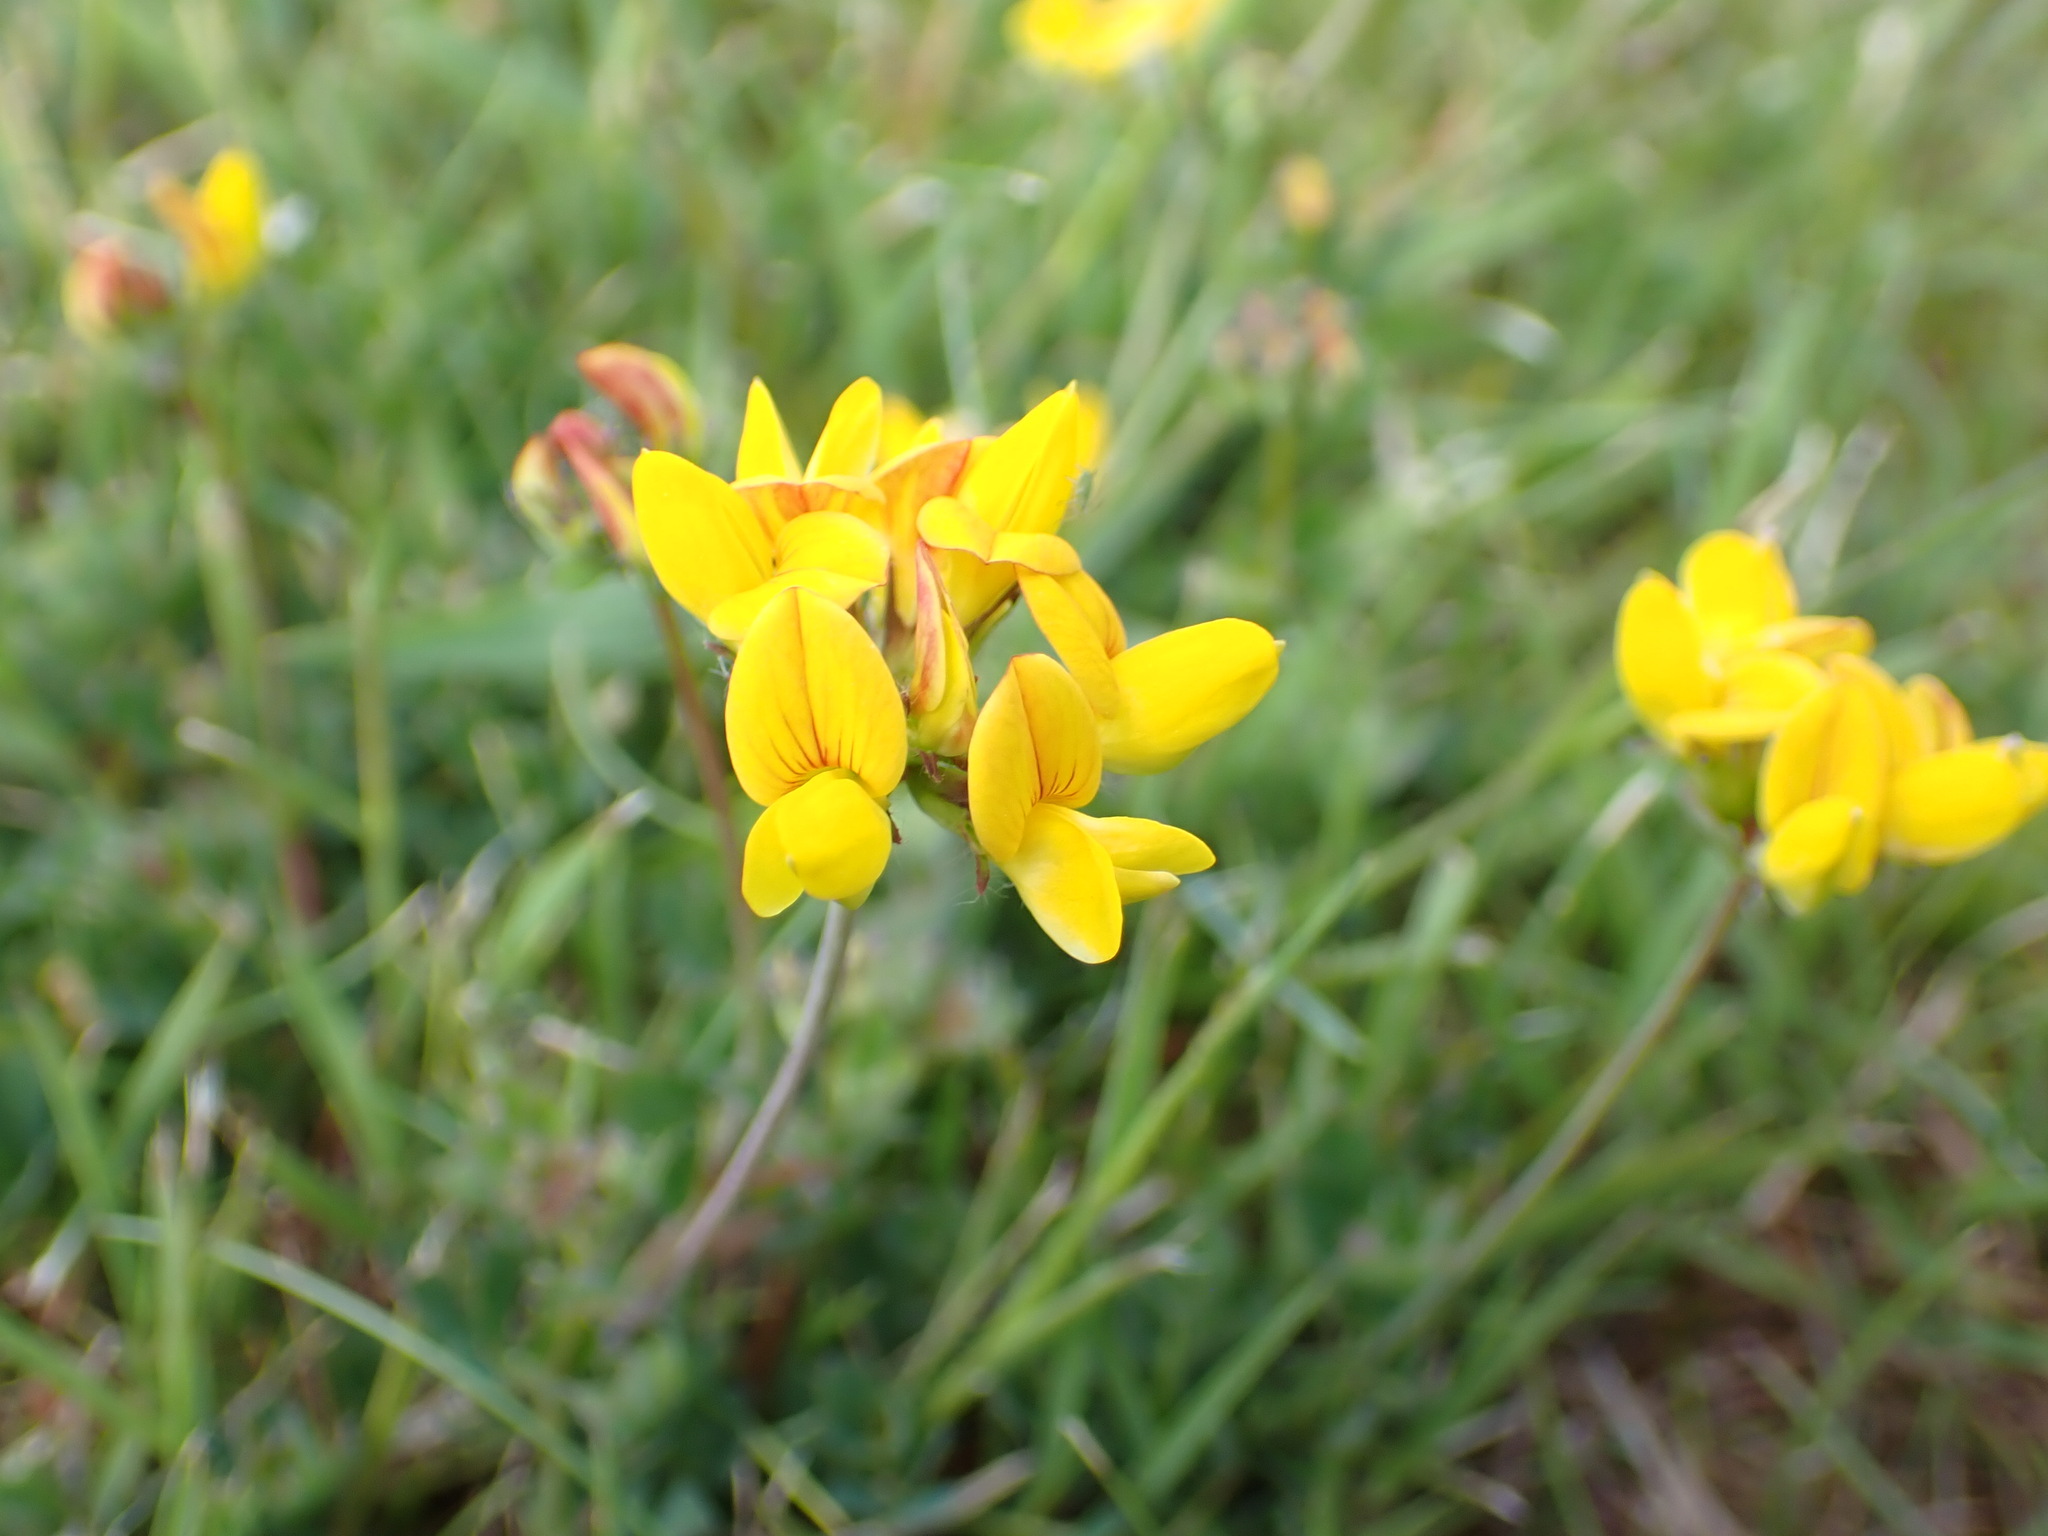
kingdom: Plantae
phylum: Tracheophyta
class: Magnoliopsida
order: Fabales
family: Fabaceae
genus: Lotus
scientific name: Lotus pedunculatus
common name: Greater birdsfoot-trefoil
